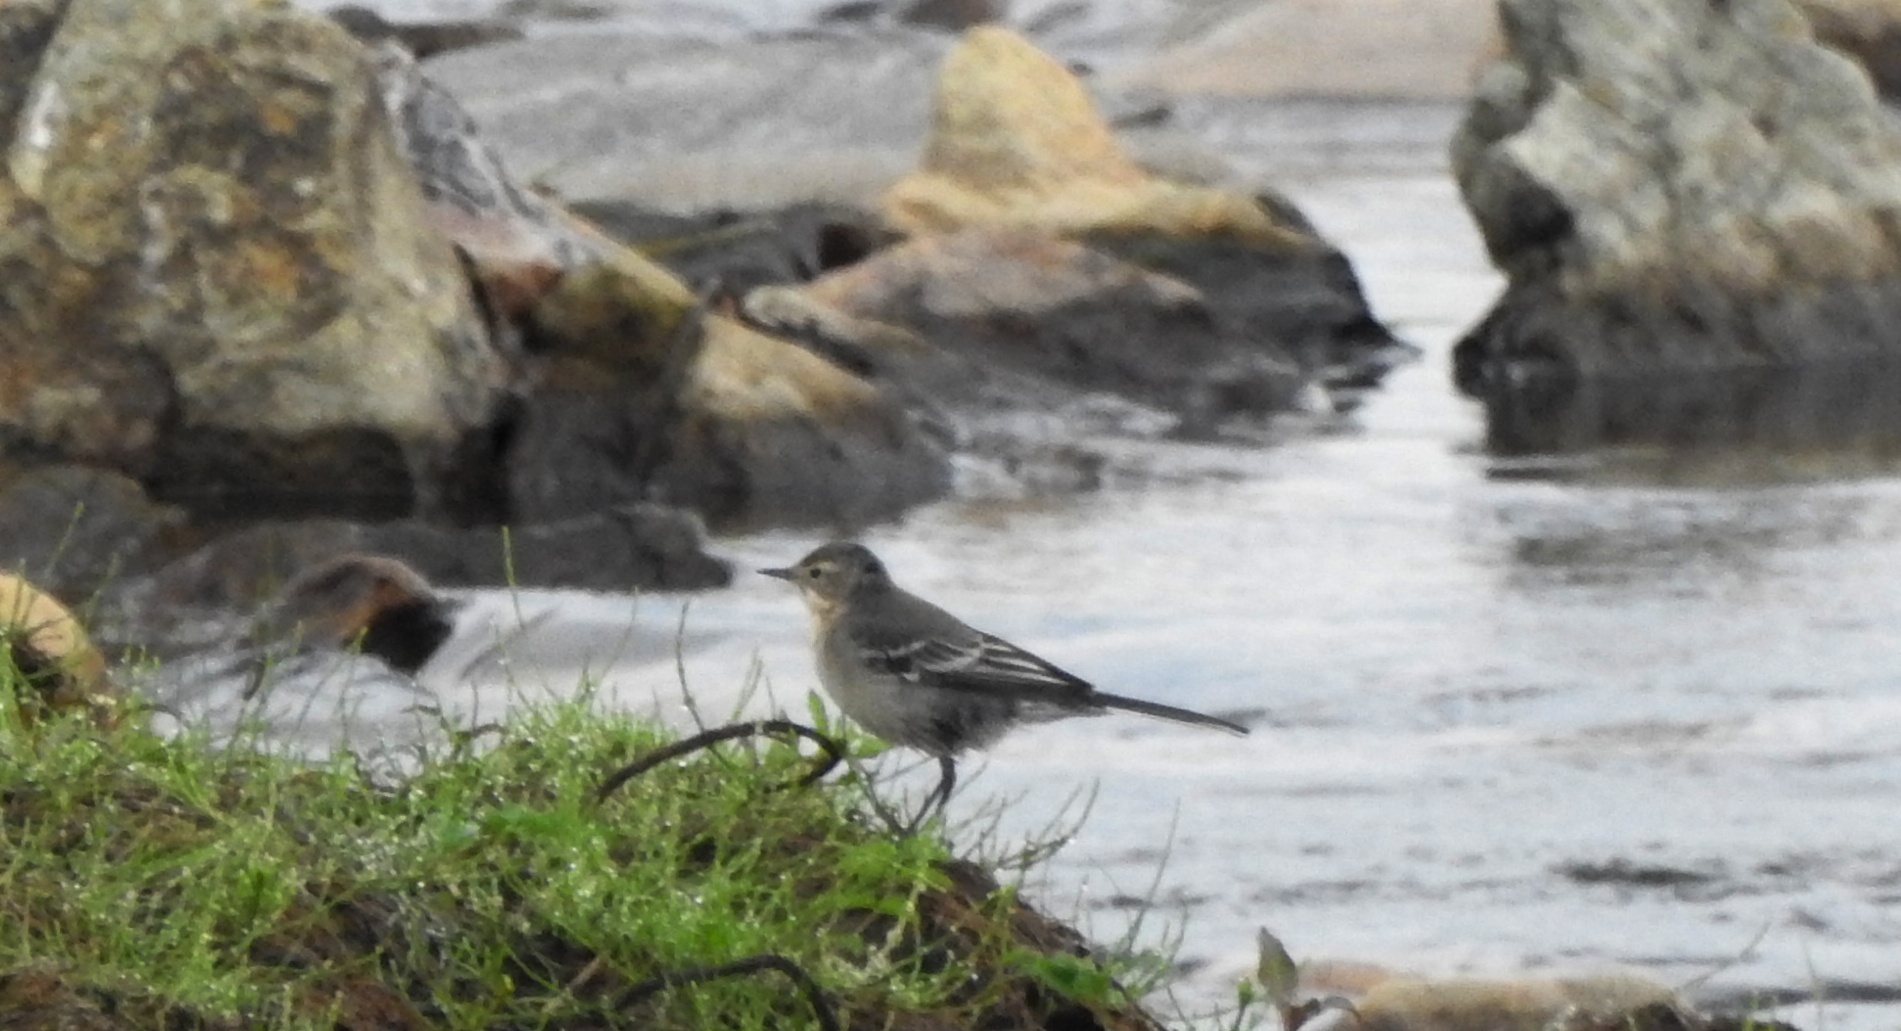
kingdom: Animalia
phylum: Chordata
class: Aves
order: Passeriformes
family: Motacillidae
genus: Motacilla
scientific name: Motacilla alba
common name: White wagtail
